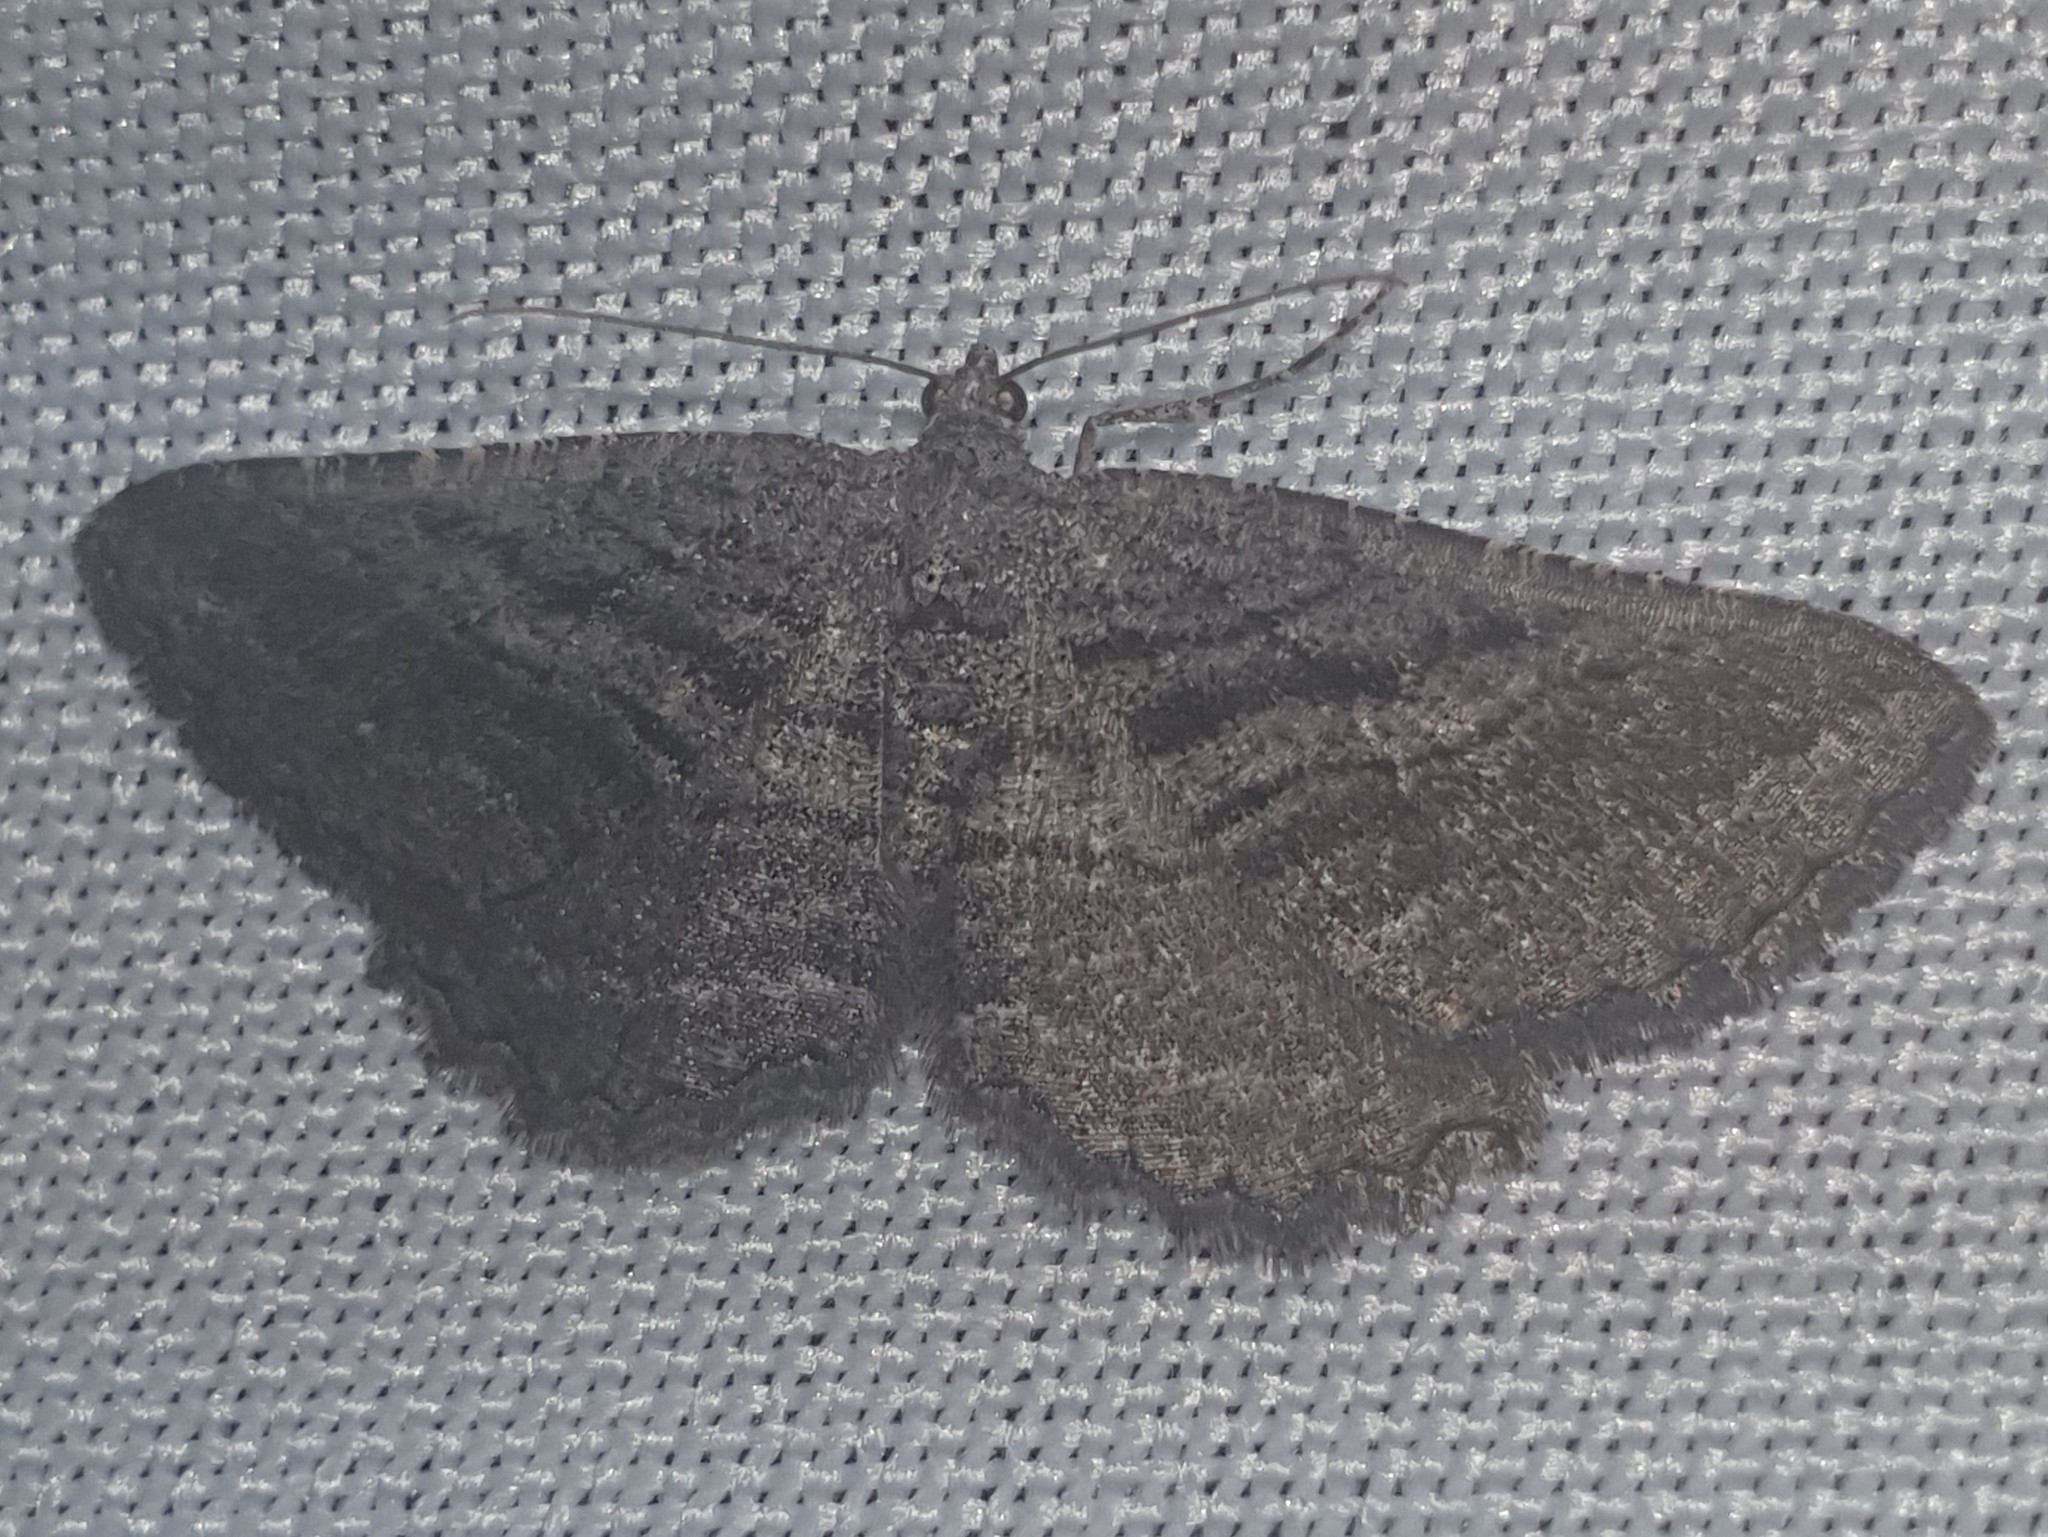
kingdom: Animalia
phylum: Arthropoda
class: Insecta
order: Lepidoptera
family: Geometridae
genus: Rhoptria
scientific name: Rhoptria asperaria
